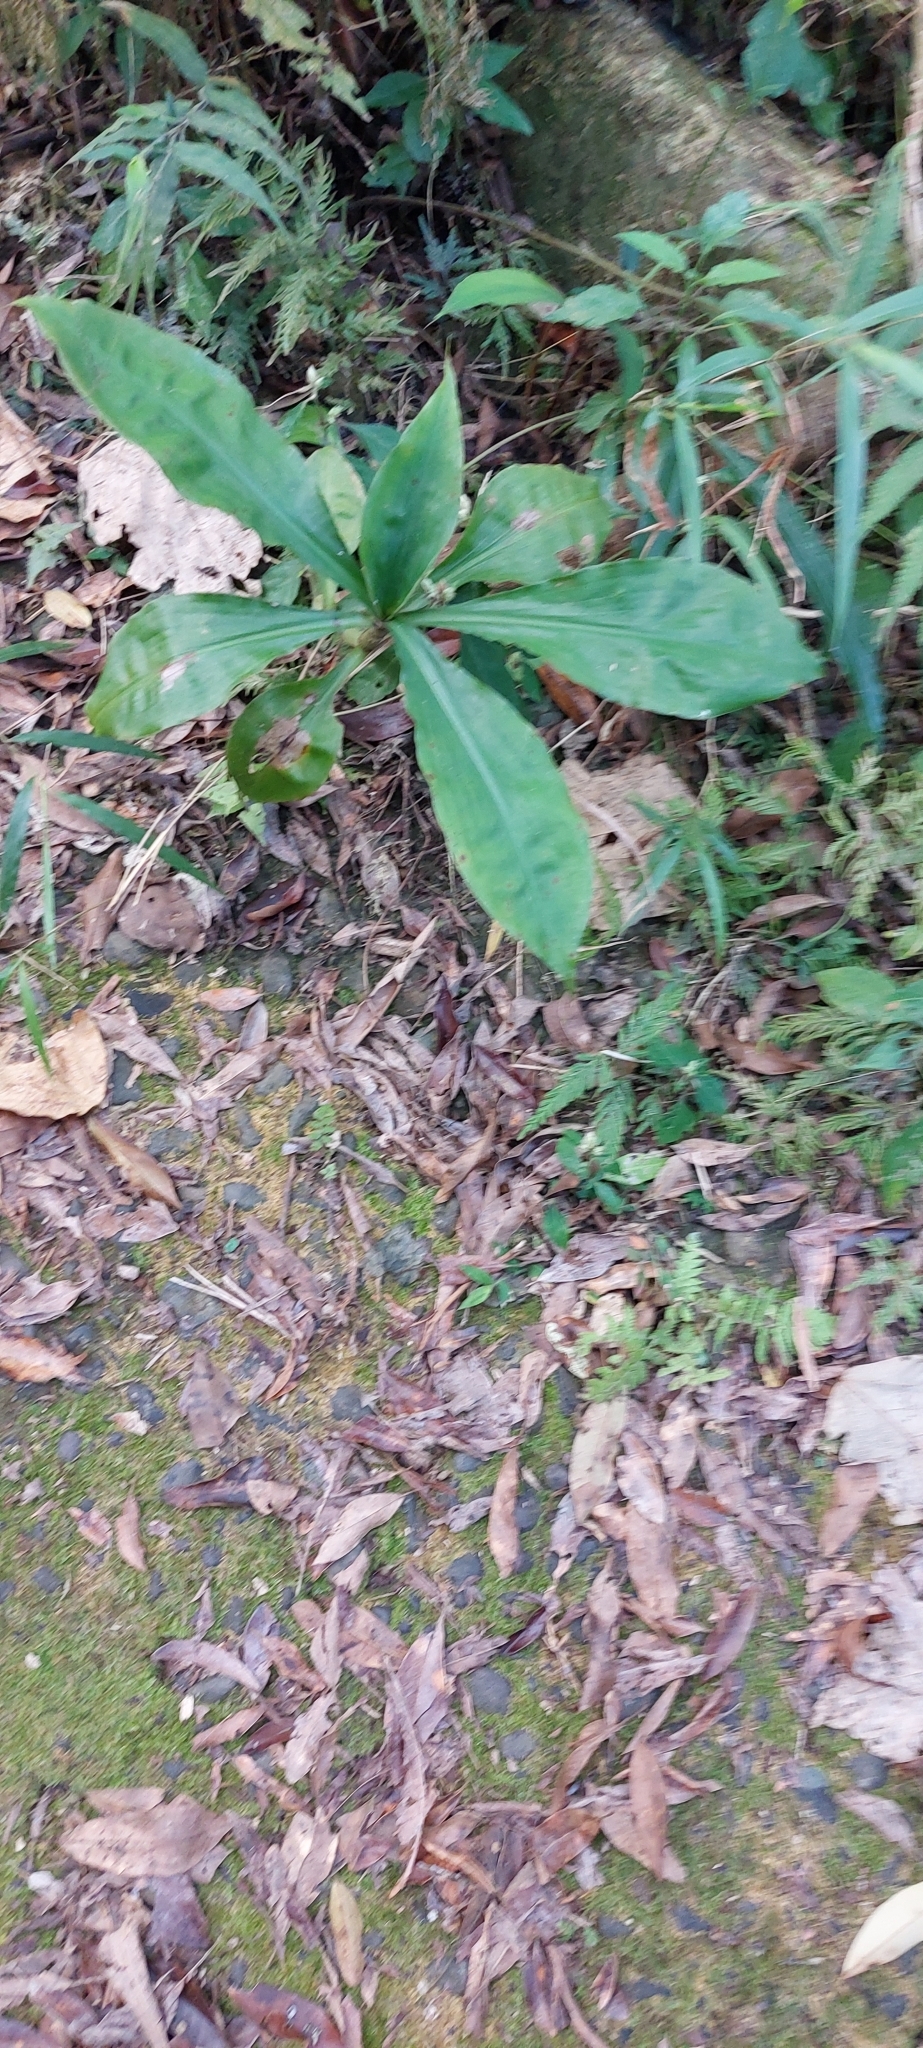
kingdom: Plantae
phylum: Tracheophyta
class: Liliopsida
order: Commelinales
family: Commelinaceae
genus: Amischotolype
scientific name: Amischotolype glabrata
